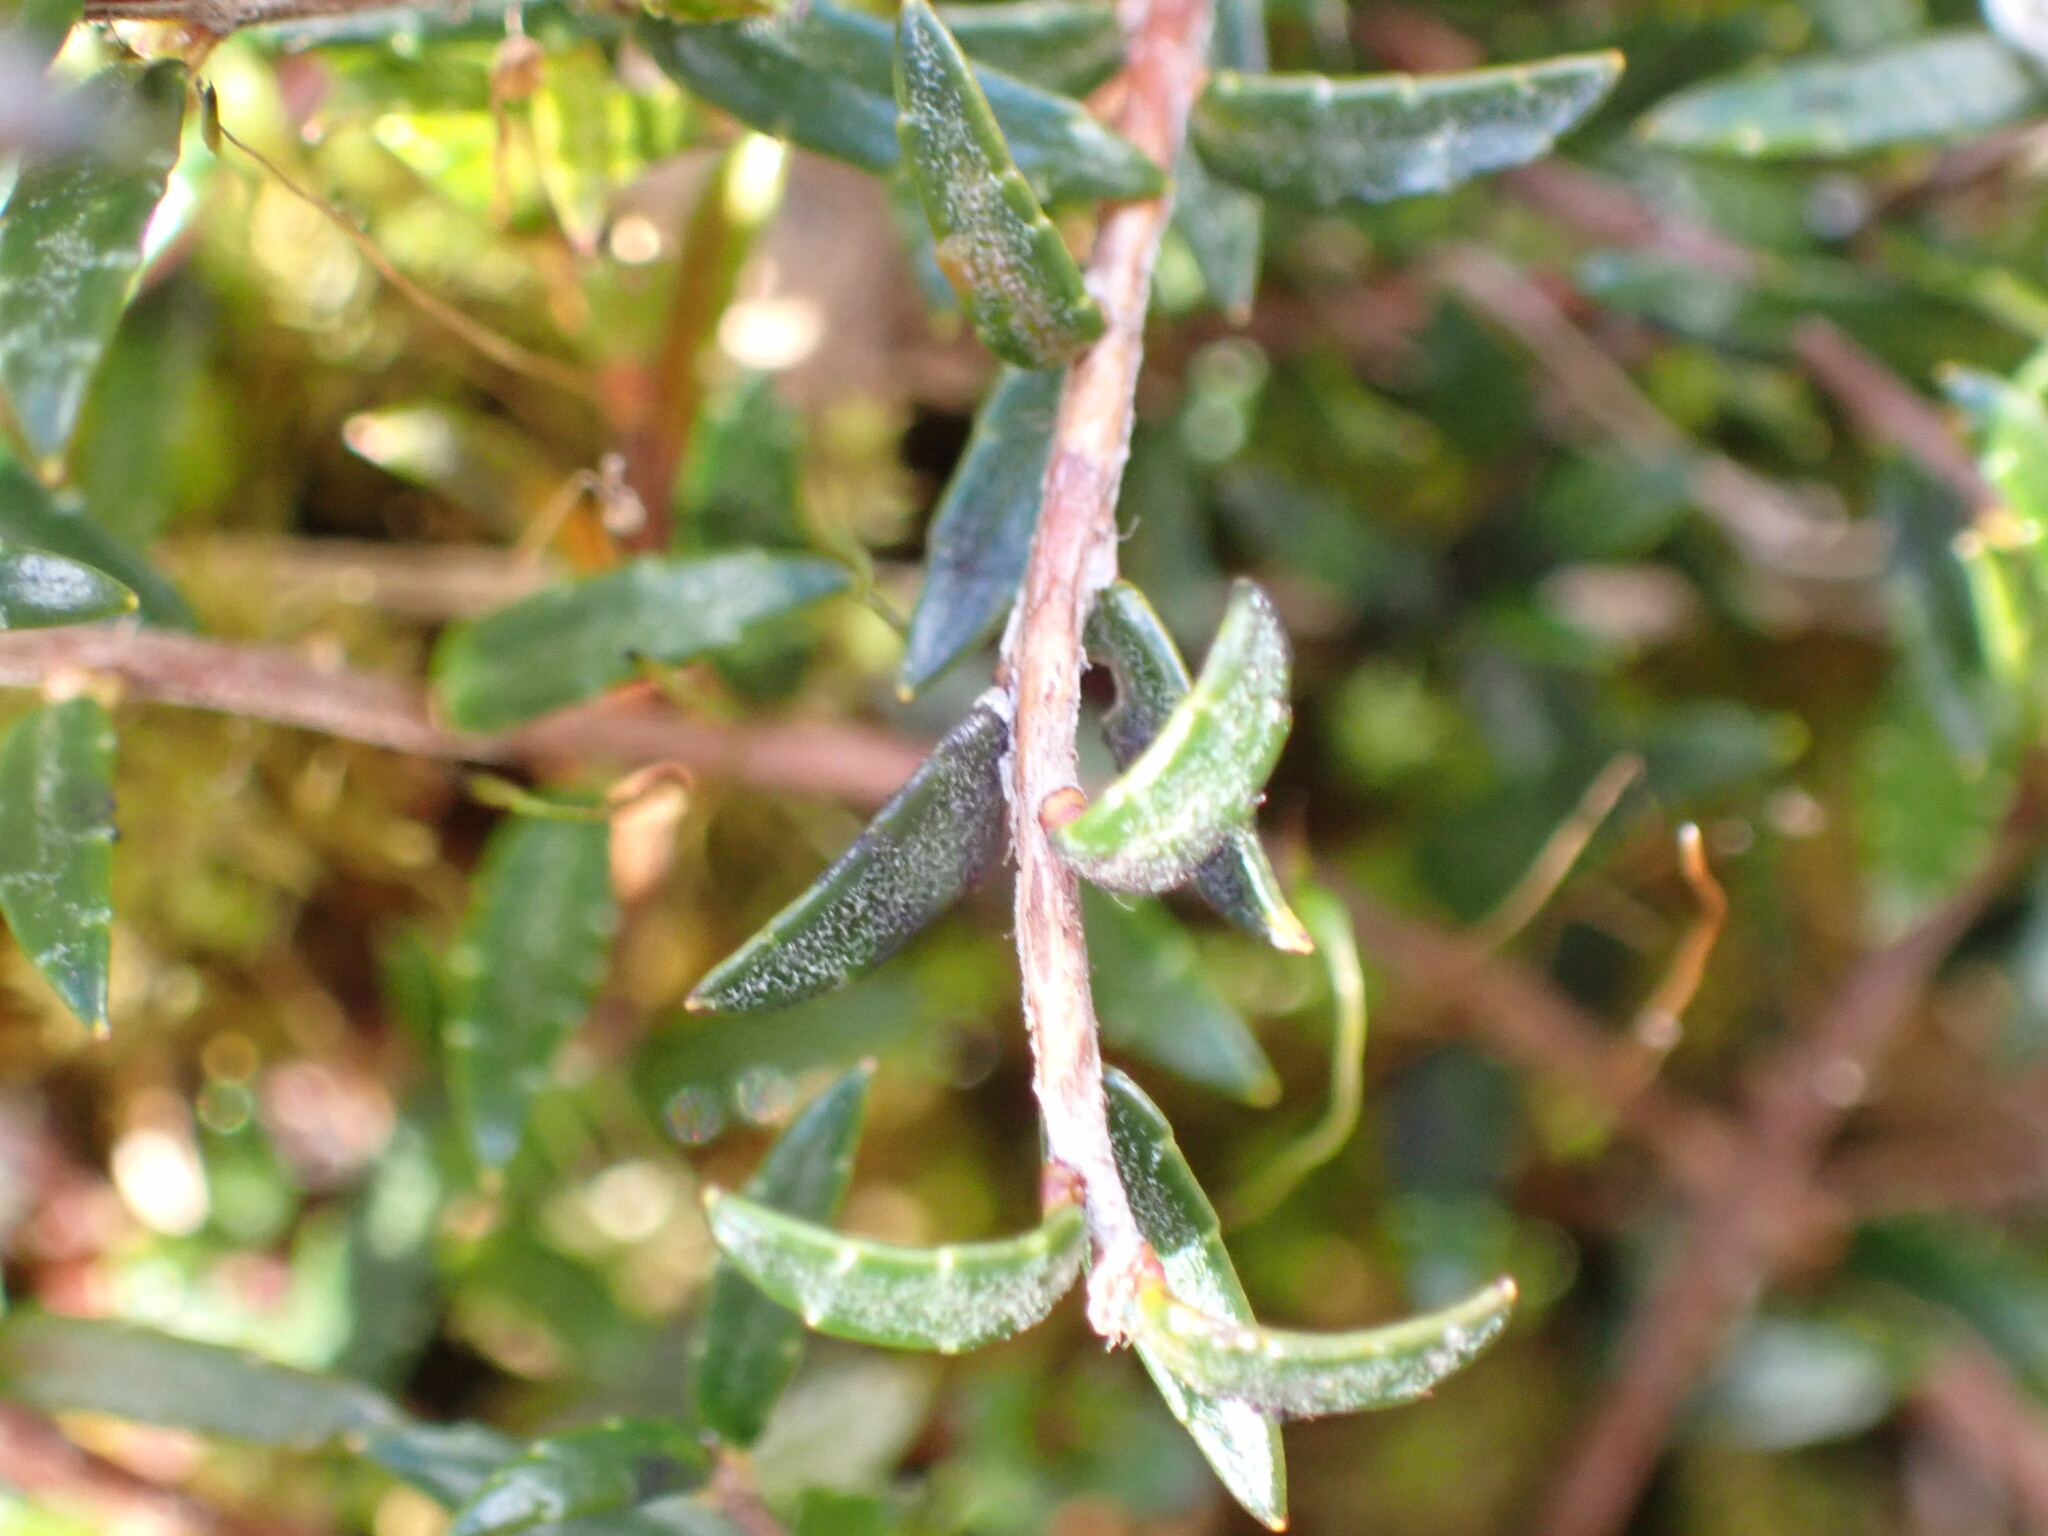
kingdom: Plantae
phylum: Tracheophyta
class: Magnoliopsida
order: Ericales
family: Ericaceae
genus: Gaultheria
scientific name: Gaultheria macrostigma
